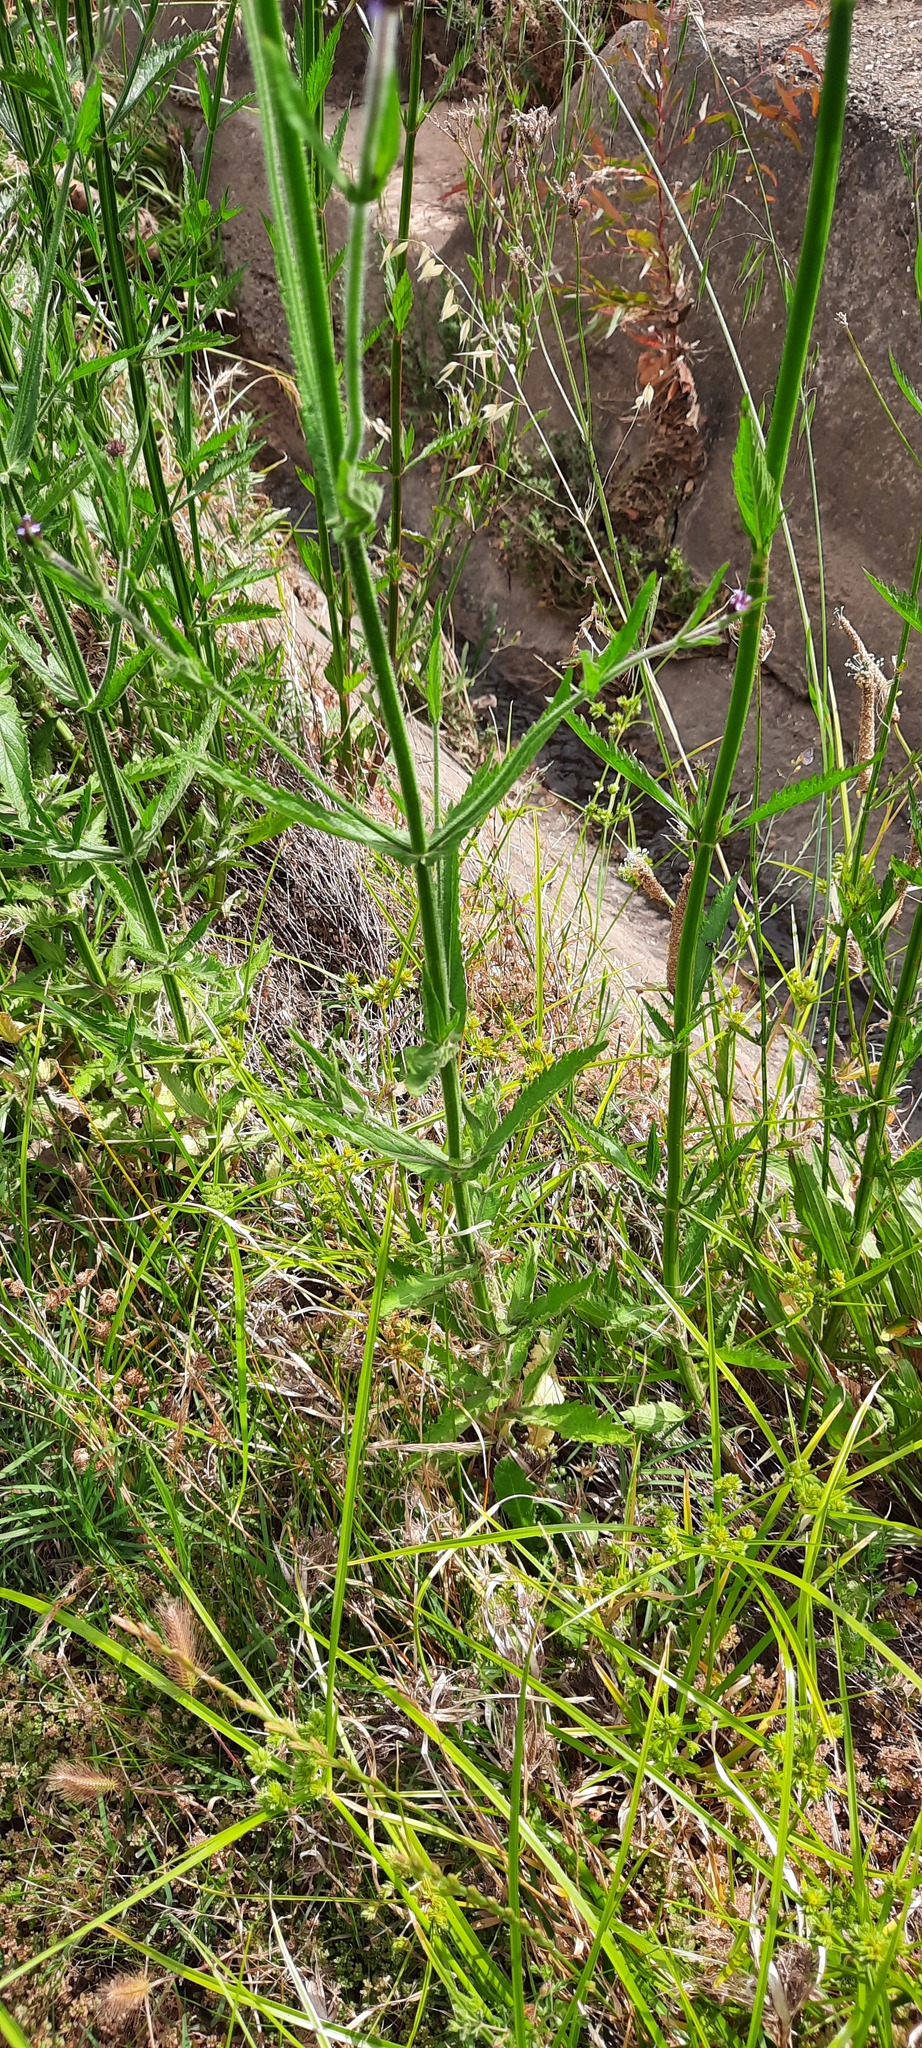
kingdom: Plantae
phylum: Tracheophyta
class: Magnoliopsida
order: Lamiales
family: Verbenaceae
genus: Verbena
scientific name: Verbena bonariensis
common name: Purpletop vervain
